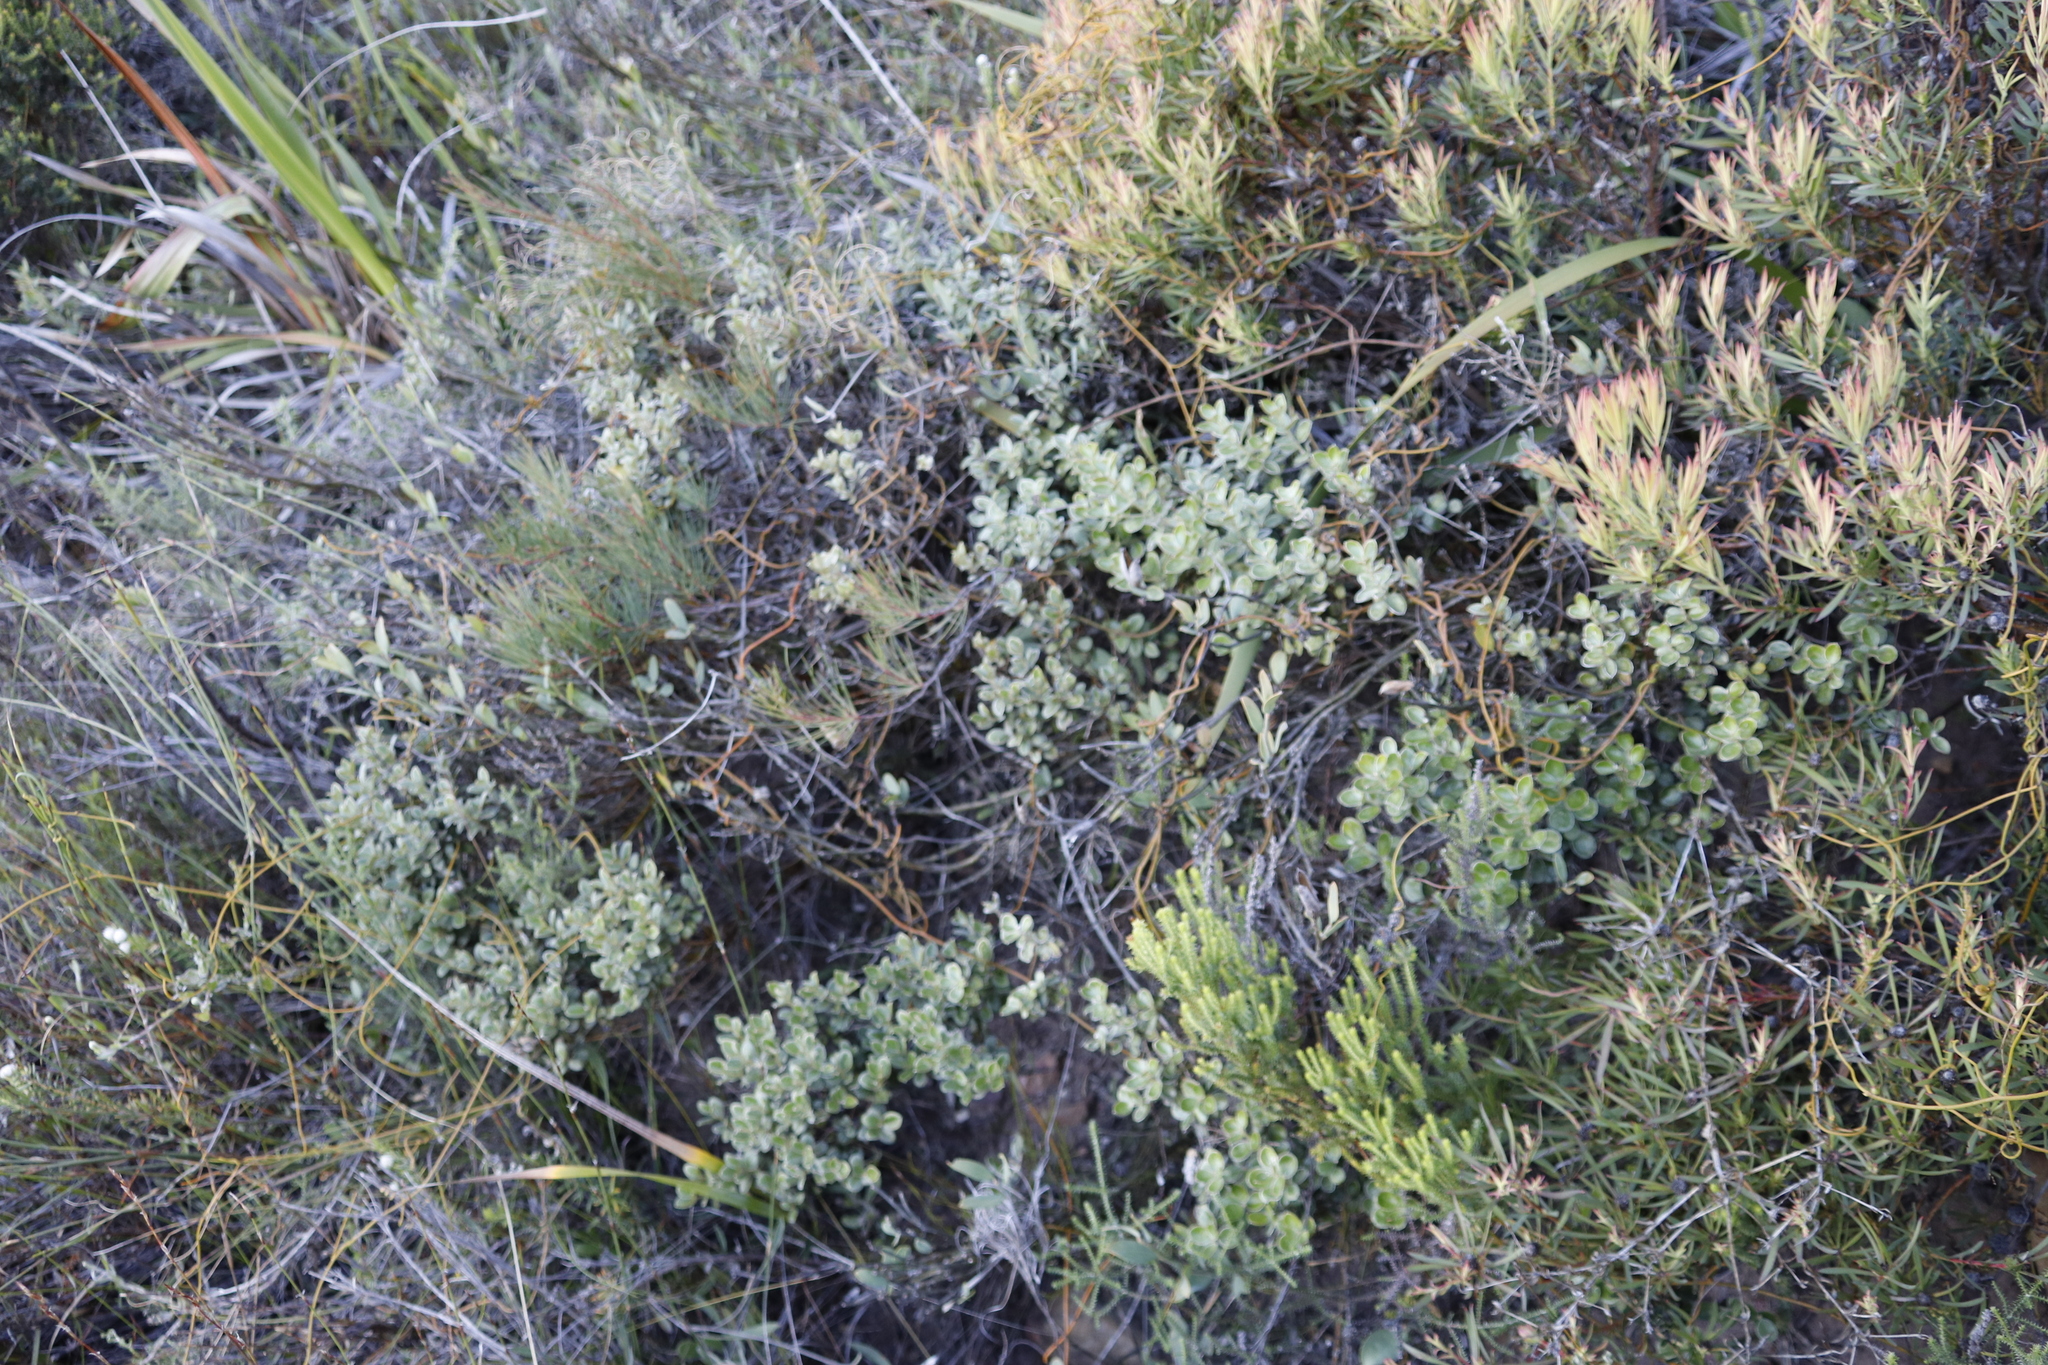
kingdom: Plantae
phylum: Tracheophyta
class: Magnoliopsida
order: Proteales
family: Proteaceae
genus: Leucadendron
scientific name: Leucadendron salignum
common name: Common sunshine conebush
